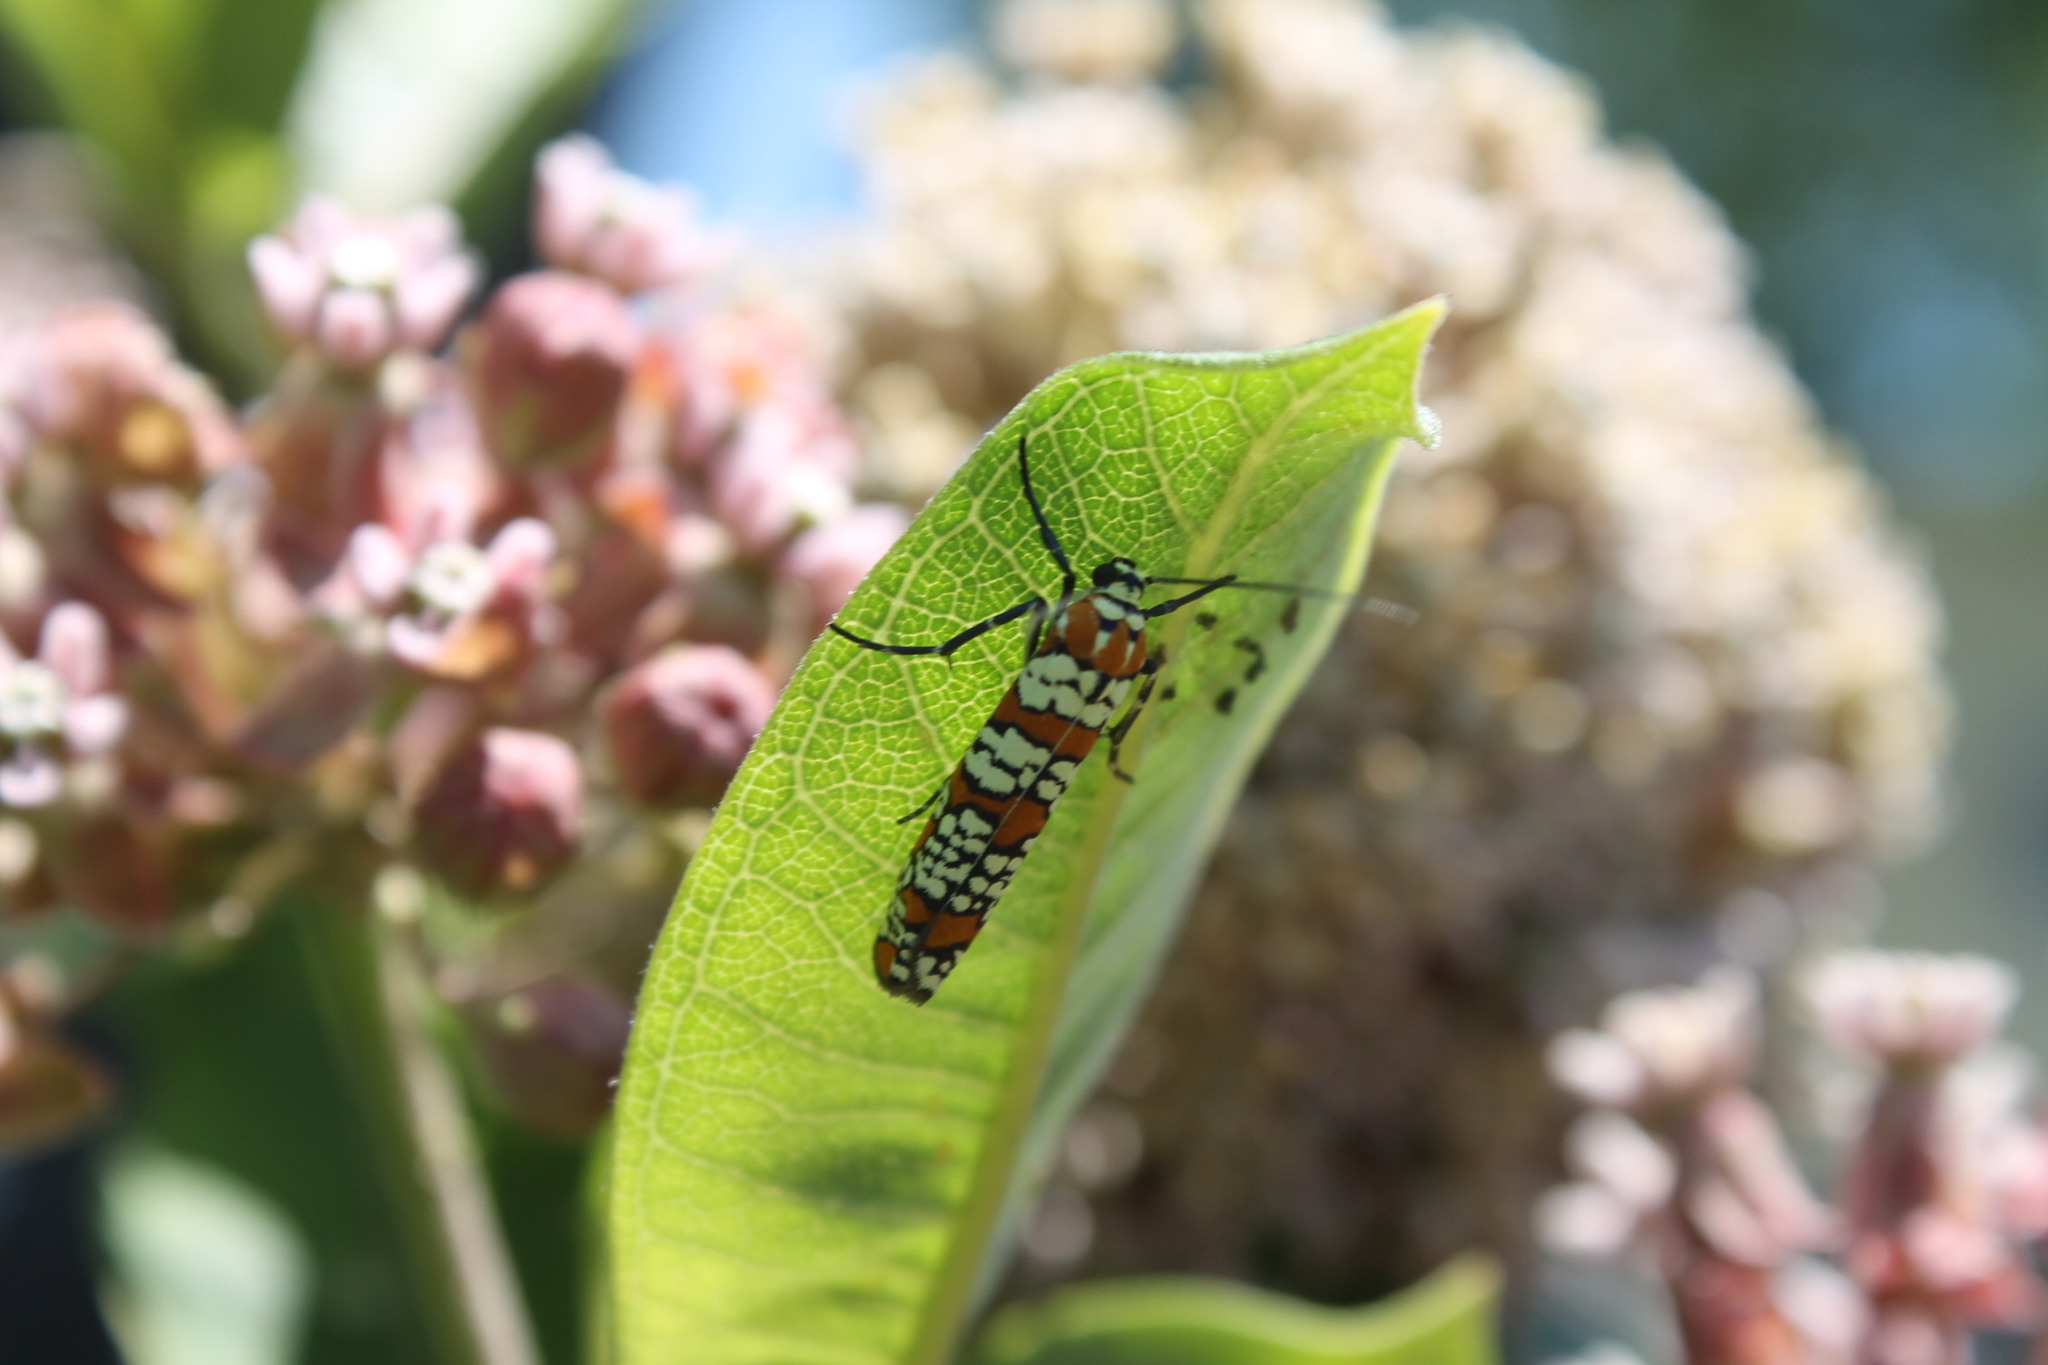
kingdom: Animalia
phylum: Arthropoda
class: Insecta
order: Lepidoptera
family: Attevidae
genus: Atteva
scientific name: Atteva punctella
